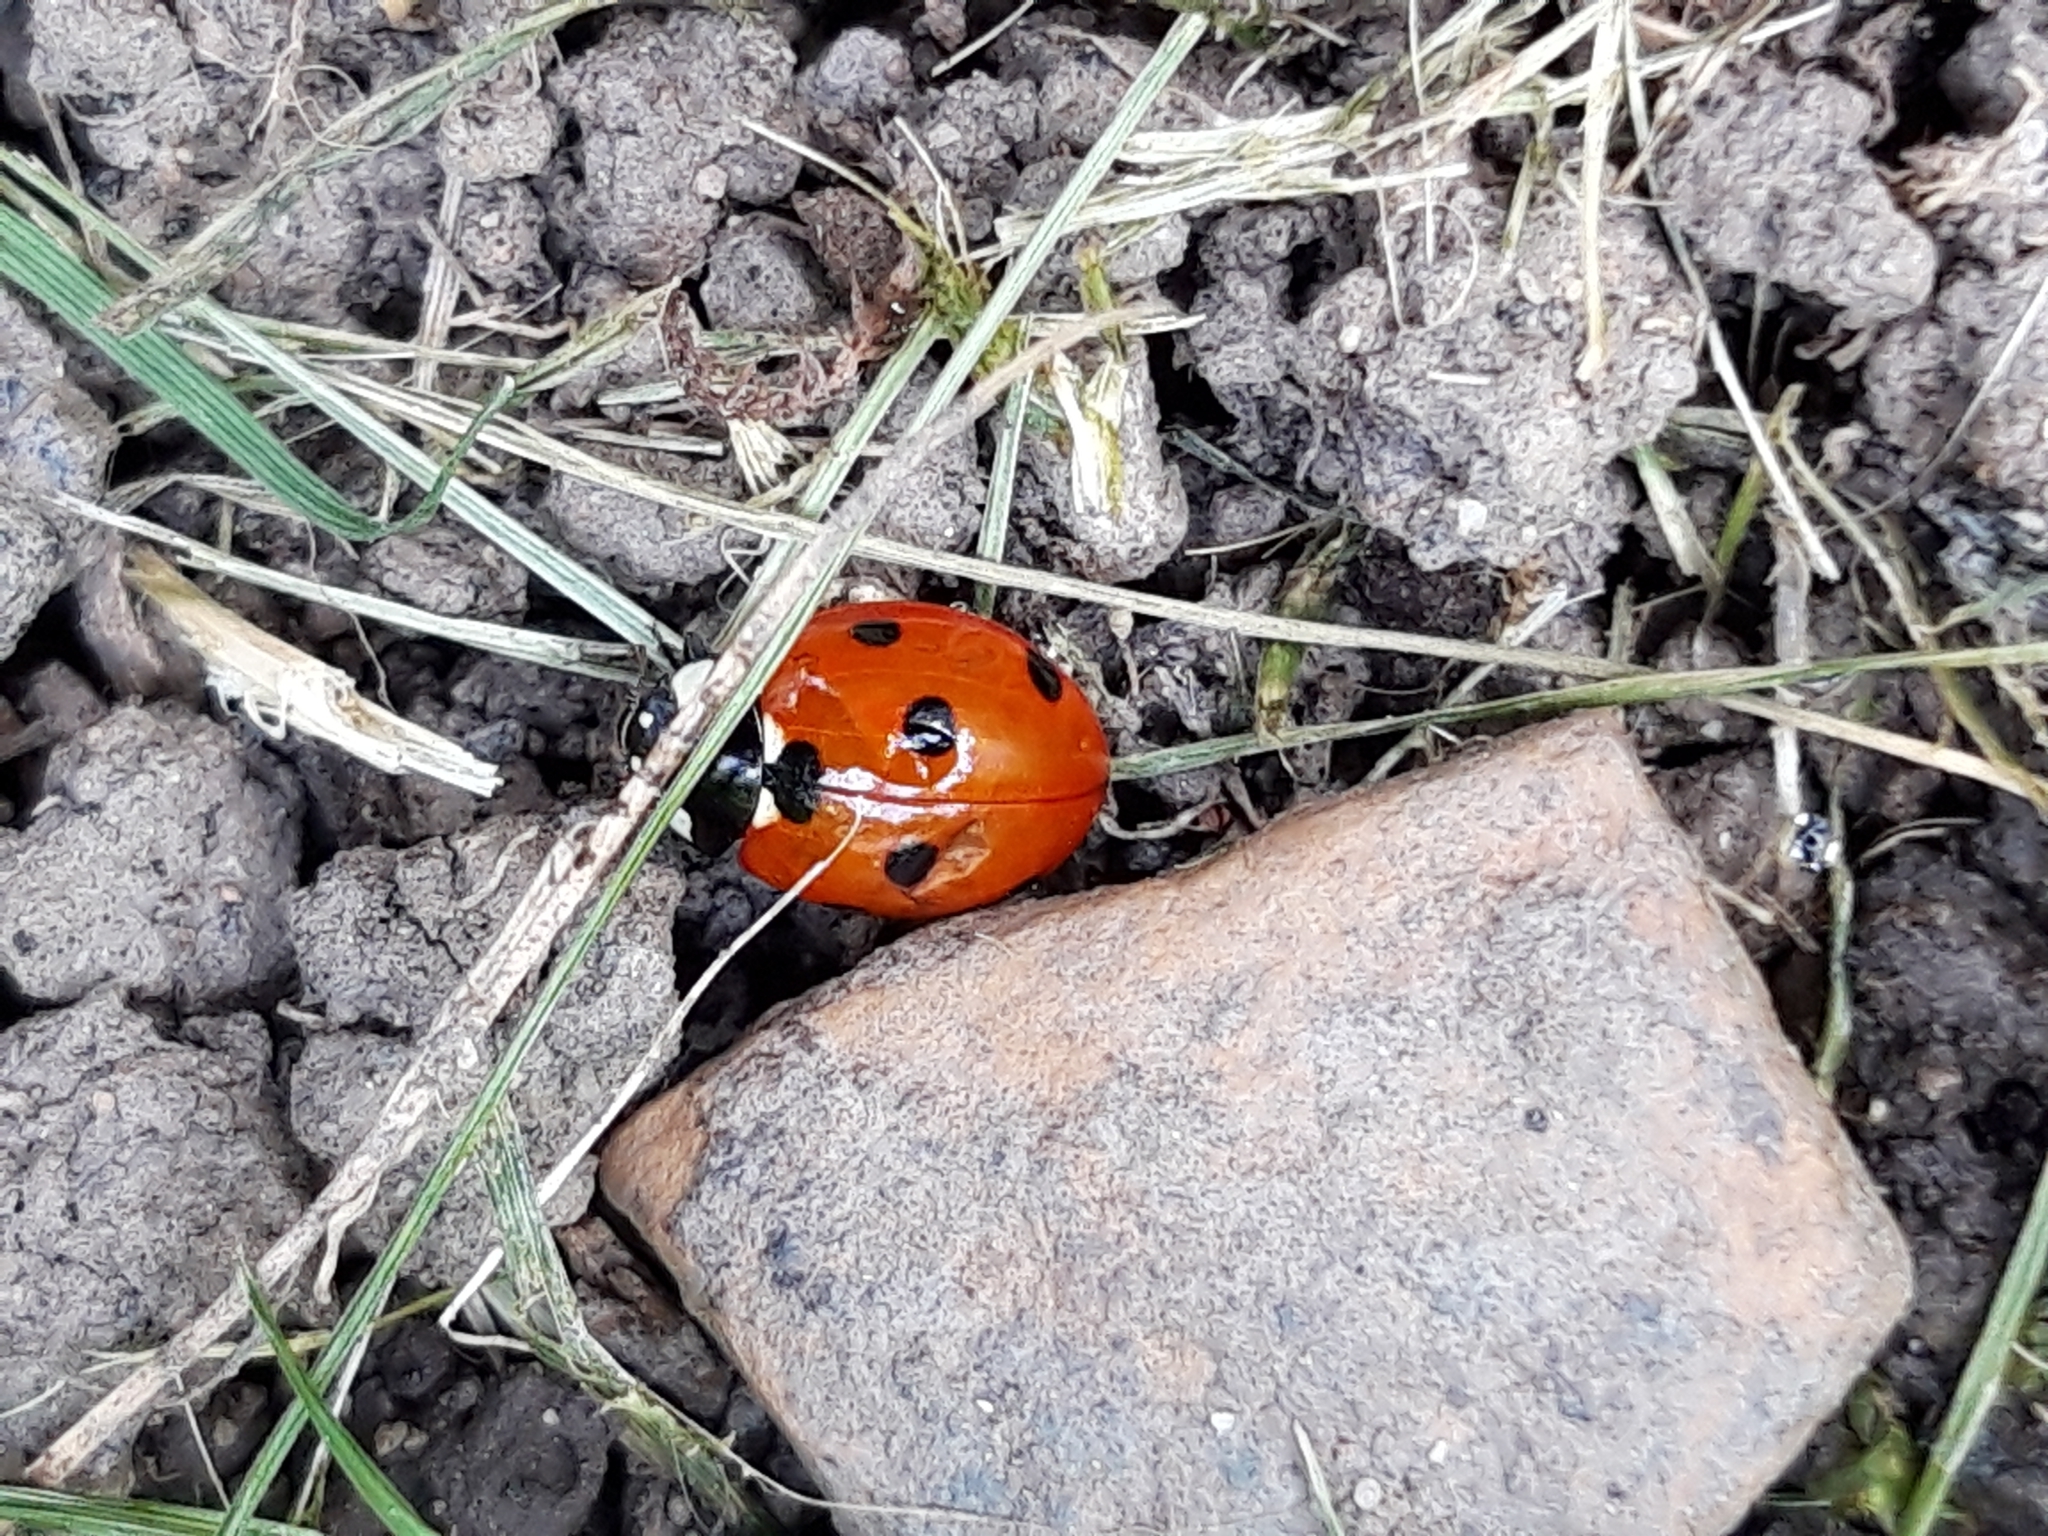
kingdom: Animalia
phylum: Arthropoda
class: Insecta
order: Coleoptera
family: Coccinellidae
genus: Coccinella
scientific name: Coccinella septempunctata
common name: Sevenspotted lady beetle
